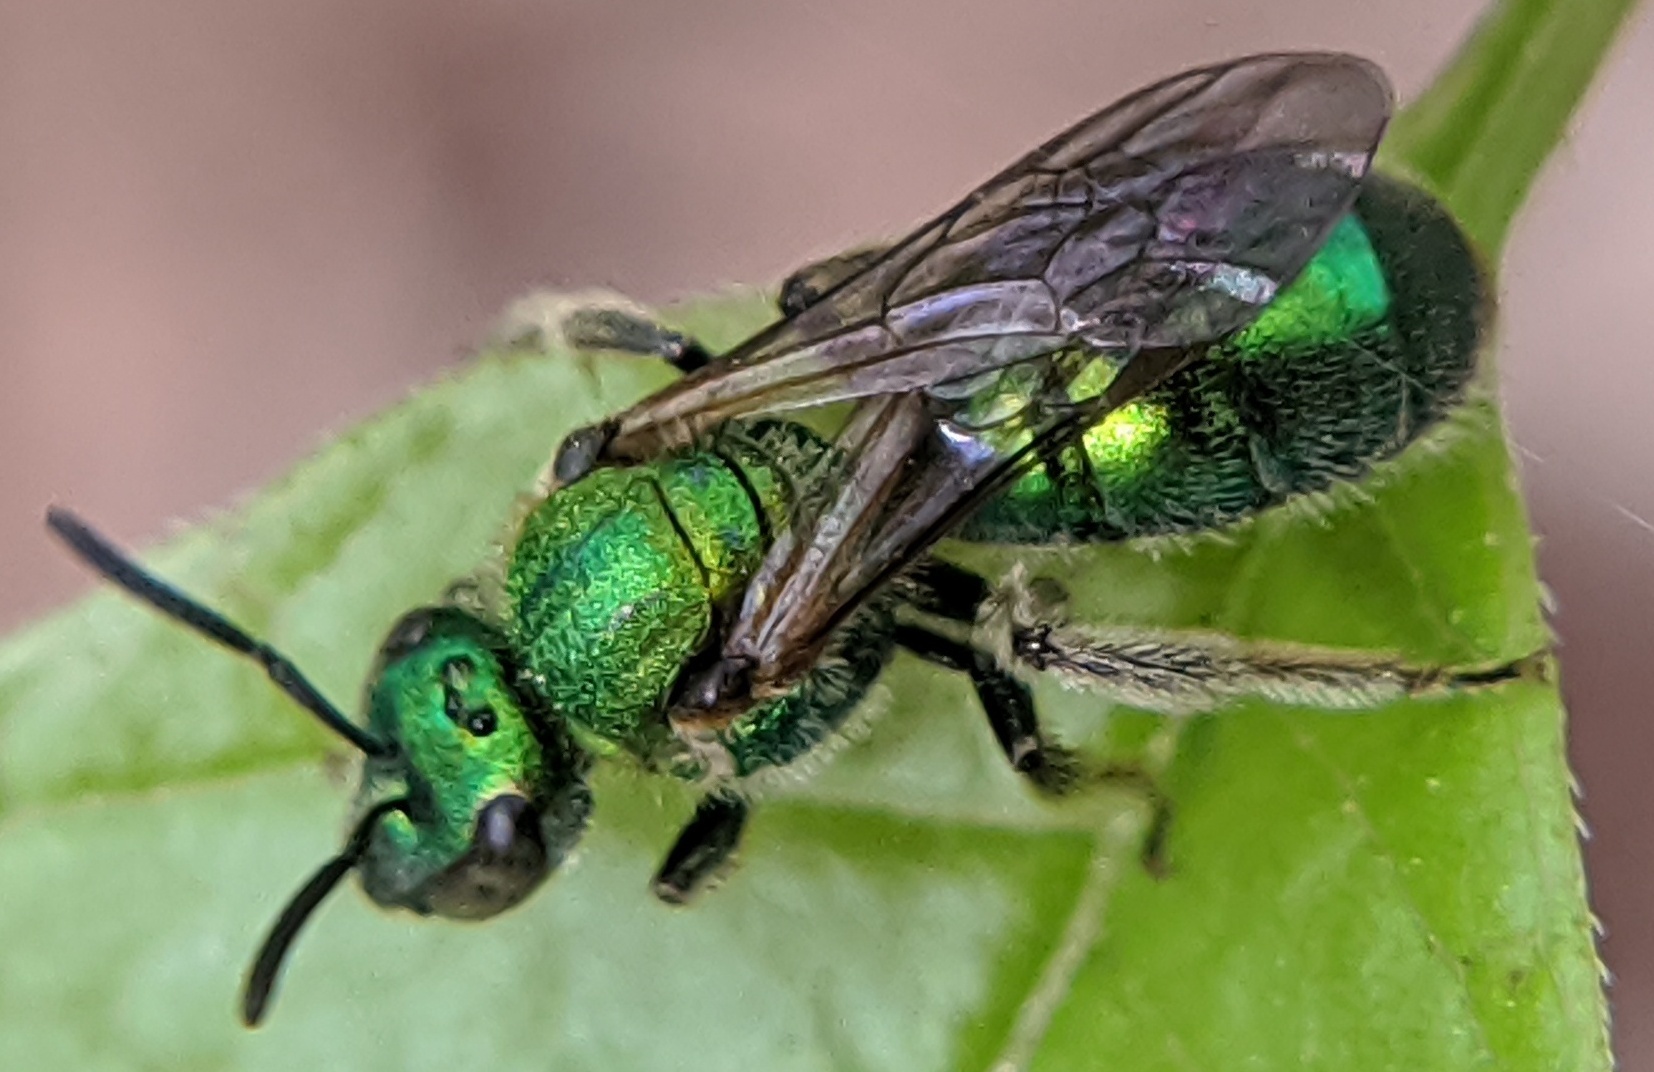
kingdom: Animalia
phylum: Arthropoda
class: Insecta
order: Hymenoptera
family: Halictidae
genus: Augochlora
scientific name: Augochlora pura
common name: Pure green sweat bee
